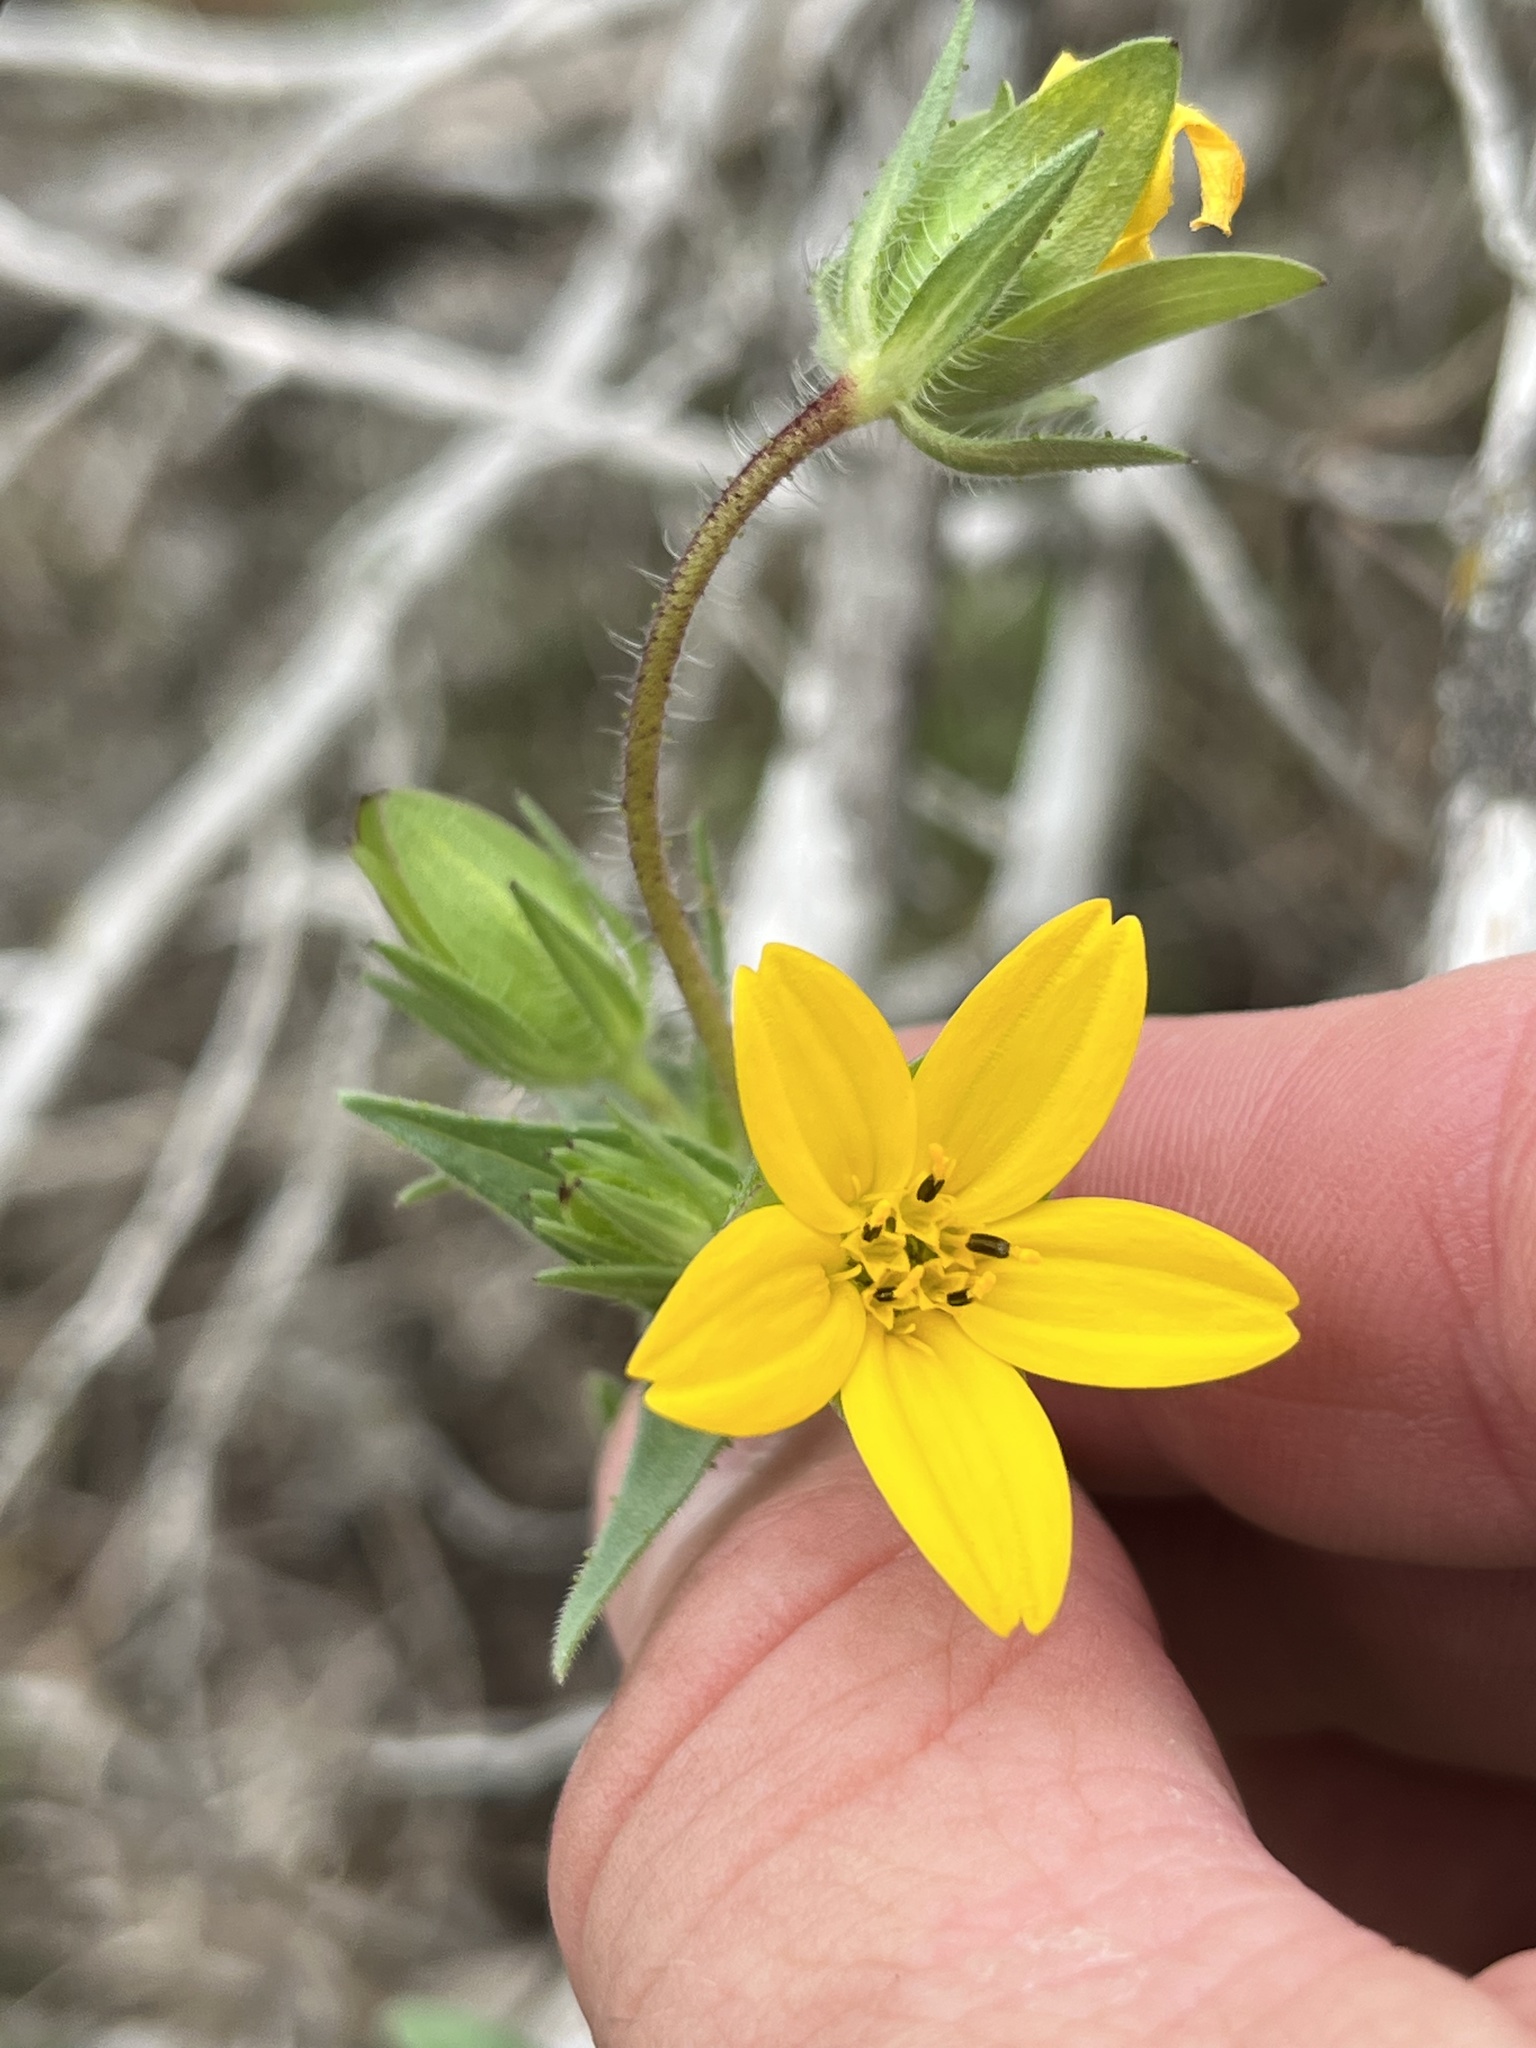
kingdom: Plantae
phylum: Tracheophyta
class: Magnoliopsida
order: Asterales
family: Asteraceae
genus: Lindheimera
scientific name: Lindheimera texana
